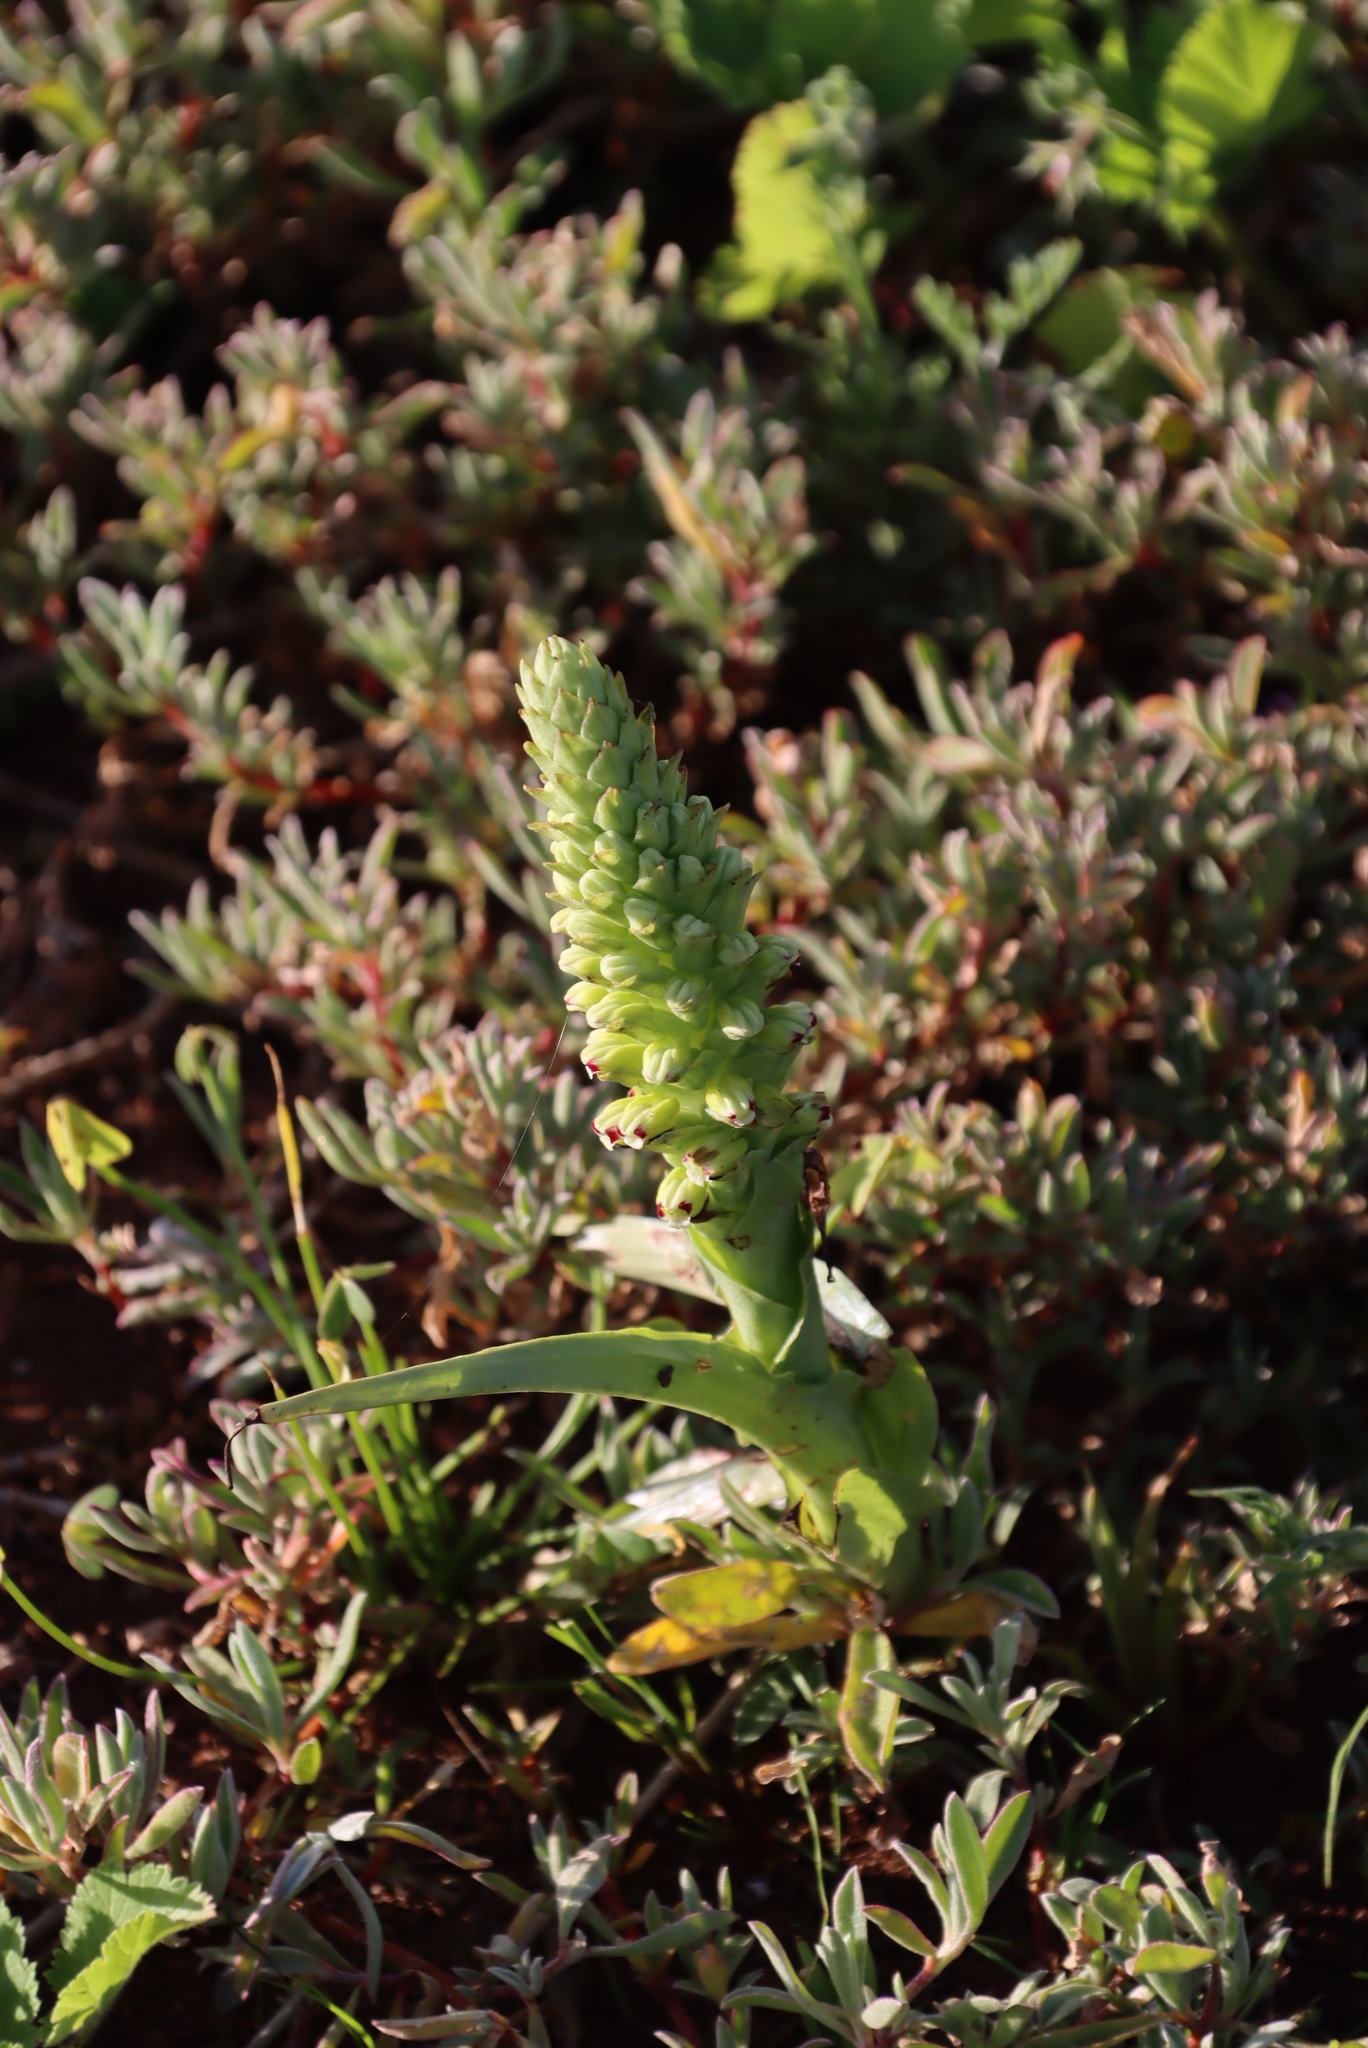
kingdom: Plantae
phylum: Tracheophyta
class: Liliopsida
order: Asparagales
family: Orchidaceae
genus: Corycium
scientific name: Corycium orobanchoides
